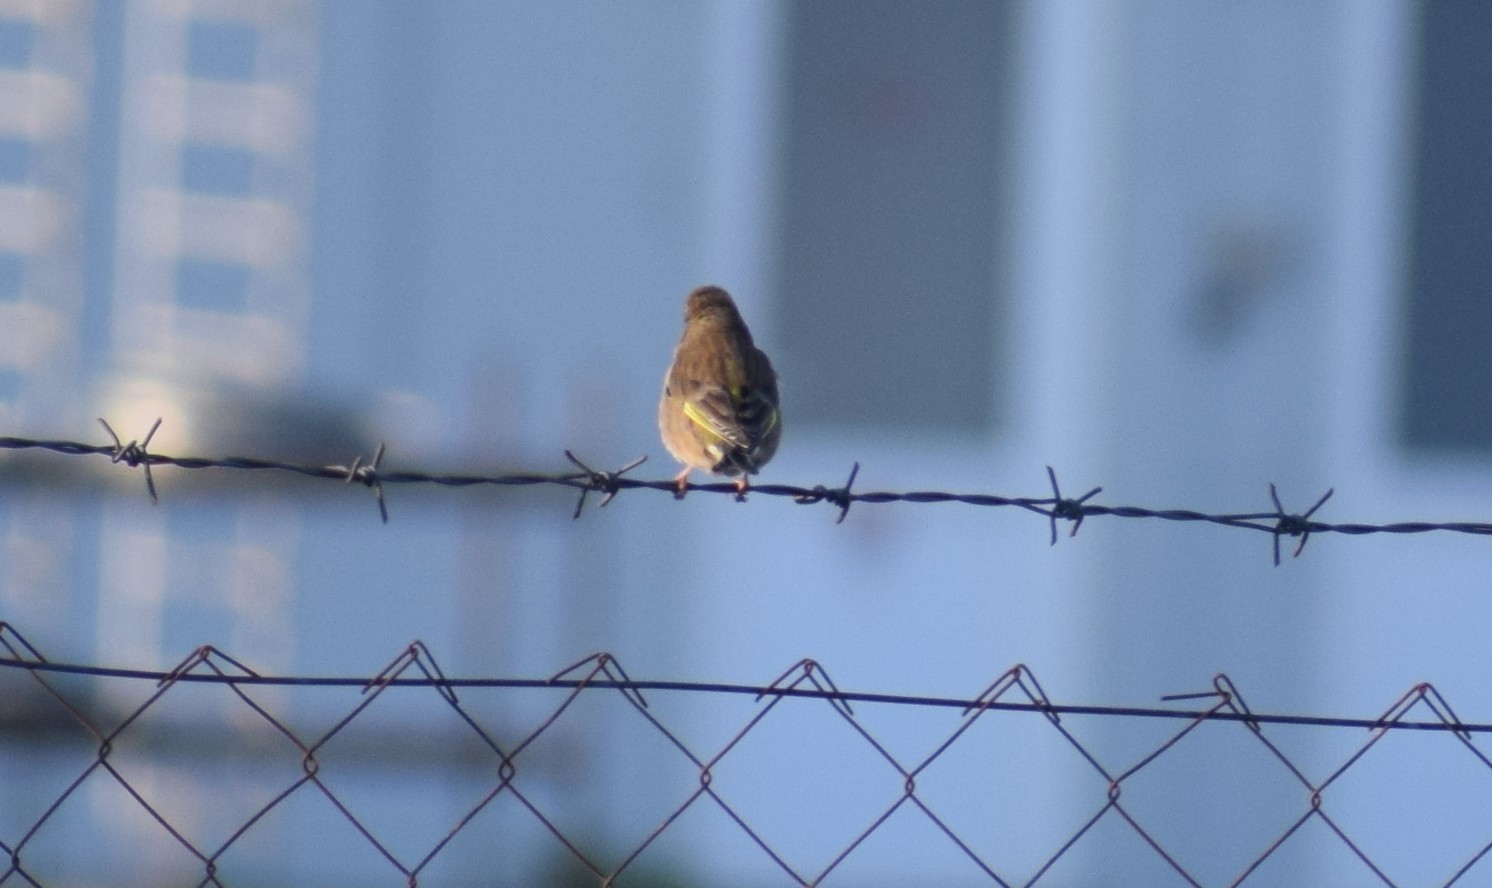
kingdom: Animalia
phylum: Chordata
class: Aves
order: Passeriformes
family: Fringillidae
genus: Linaria
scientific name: Linaria cannabina
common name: Common linnet
